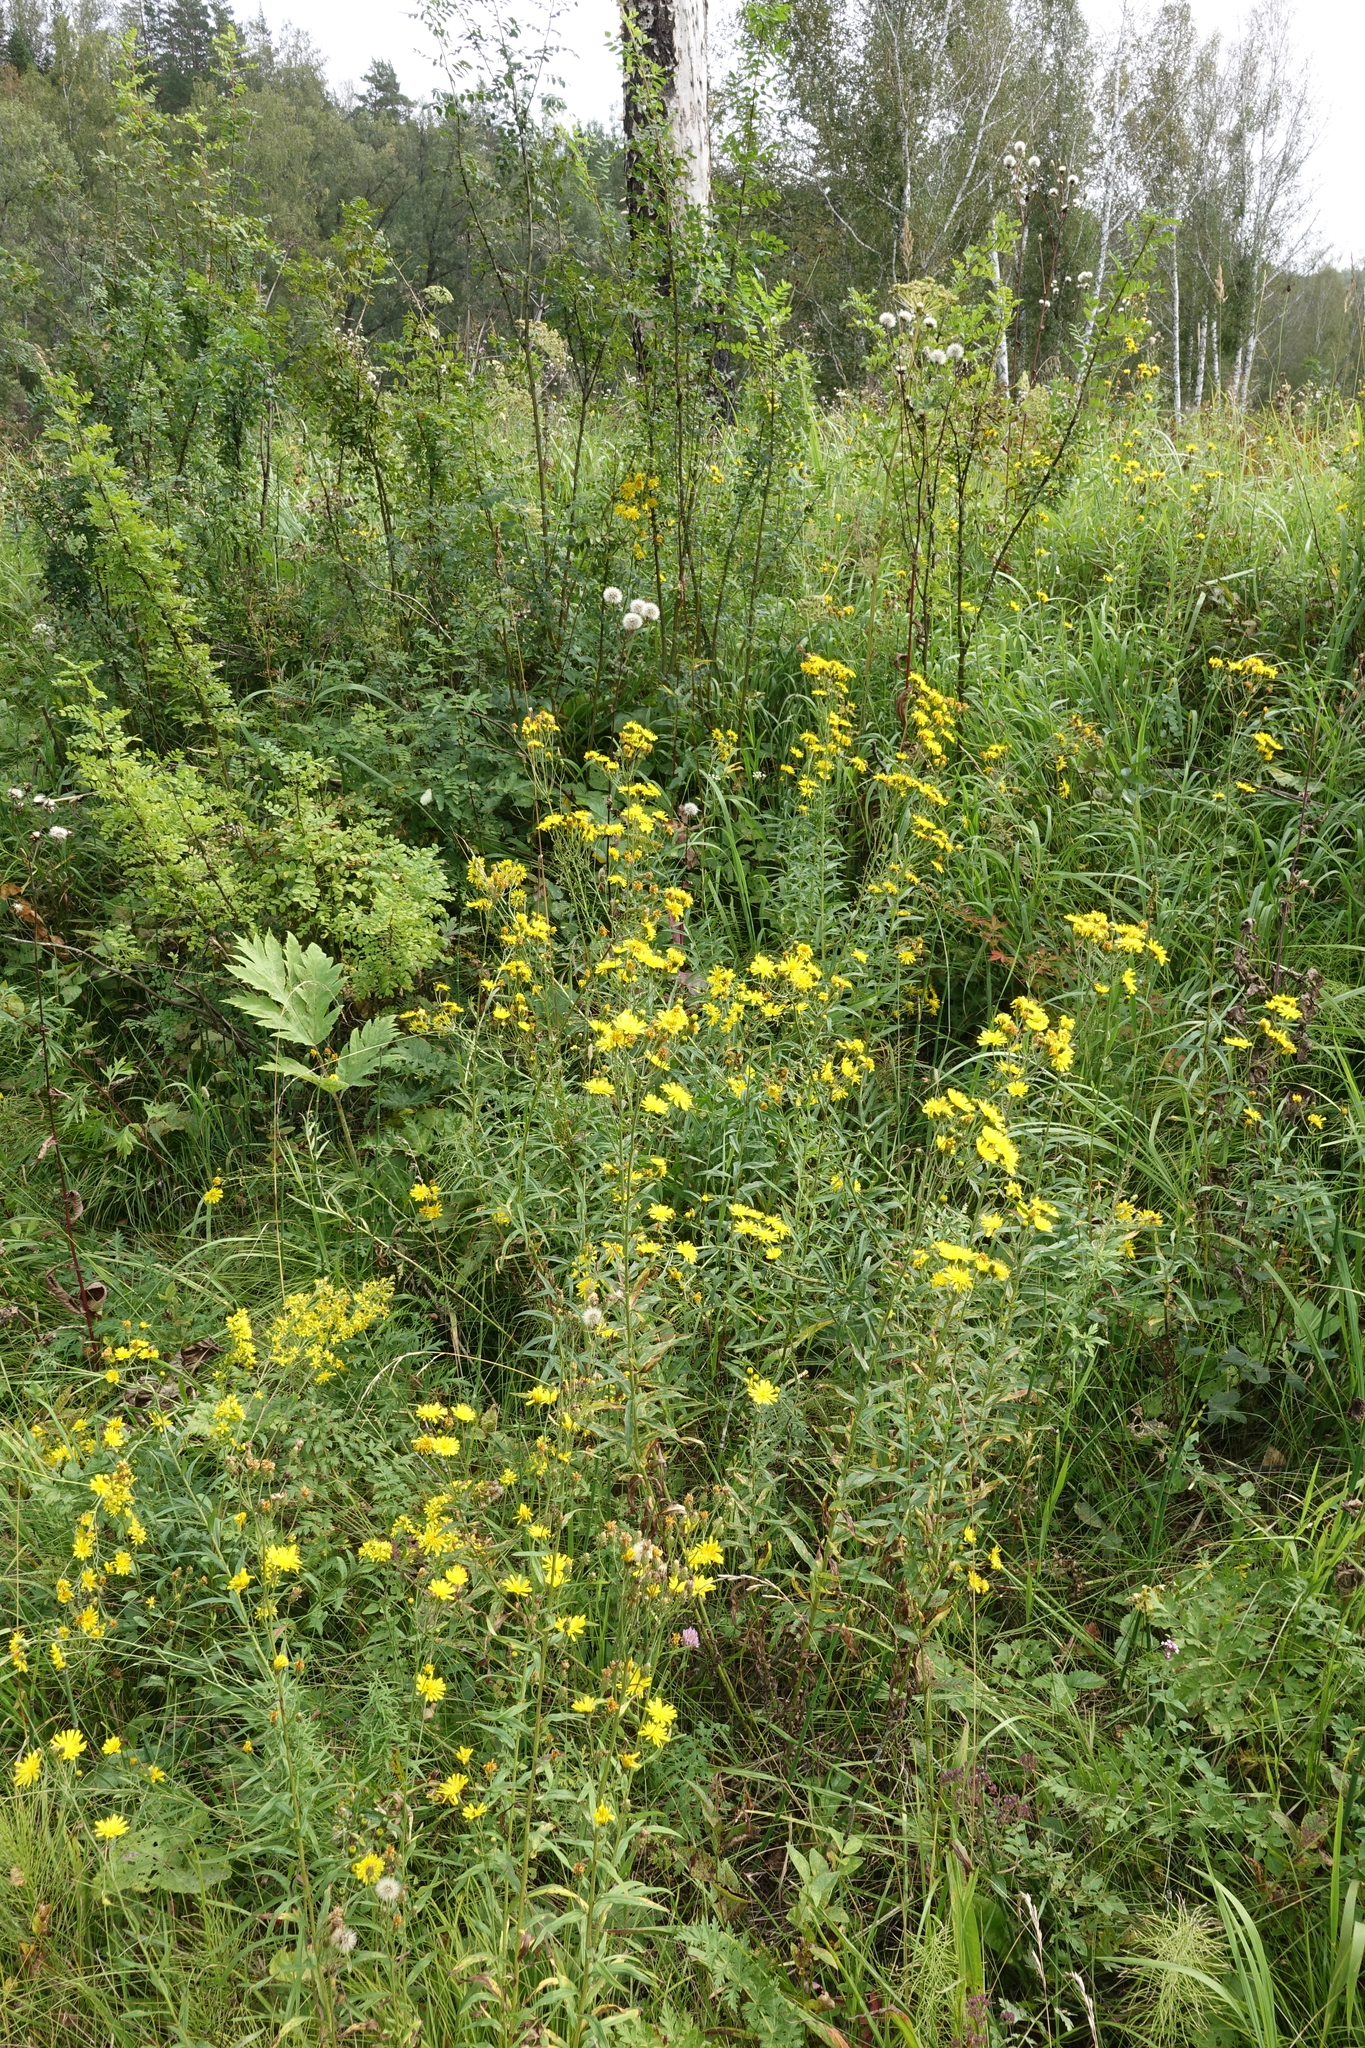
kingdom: Plantae
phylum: Tracheophyta
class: Magnoliopsida
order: Asterales
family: Asteraceae
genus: Hieracium
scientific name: Hieracium umbellatum
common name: Northern hawkweed
